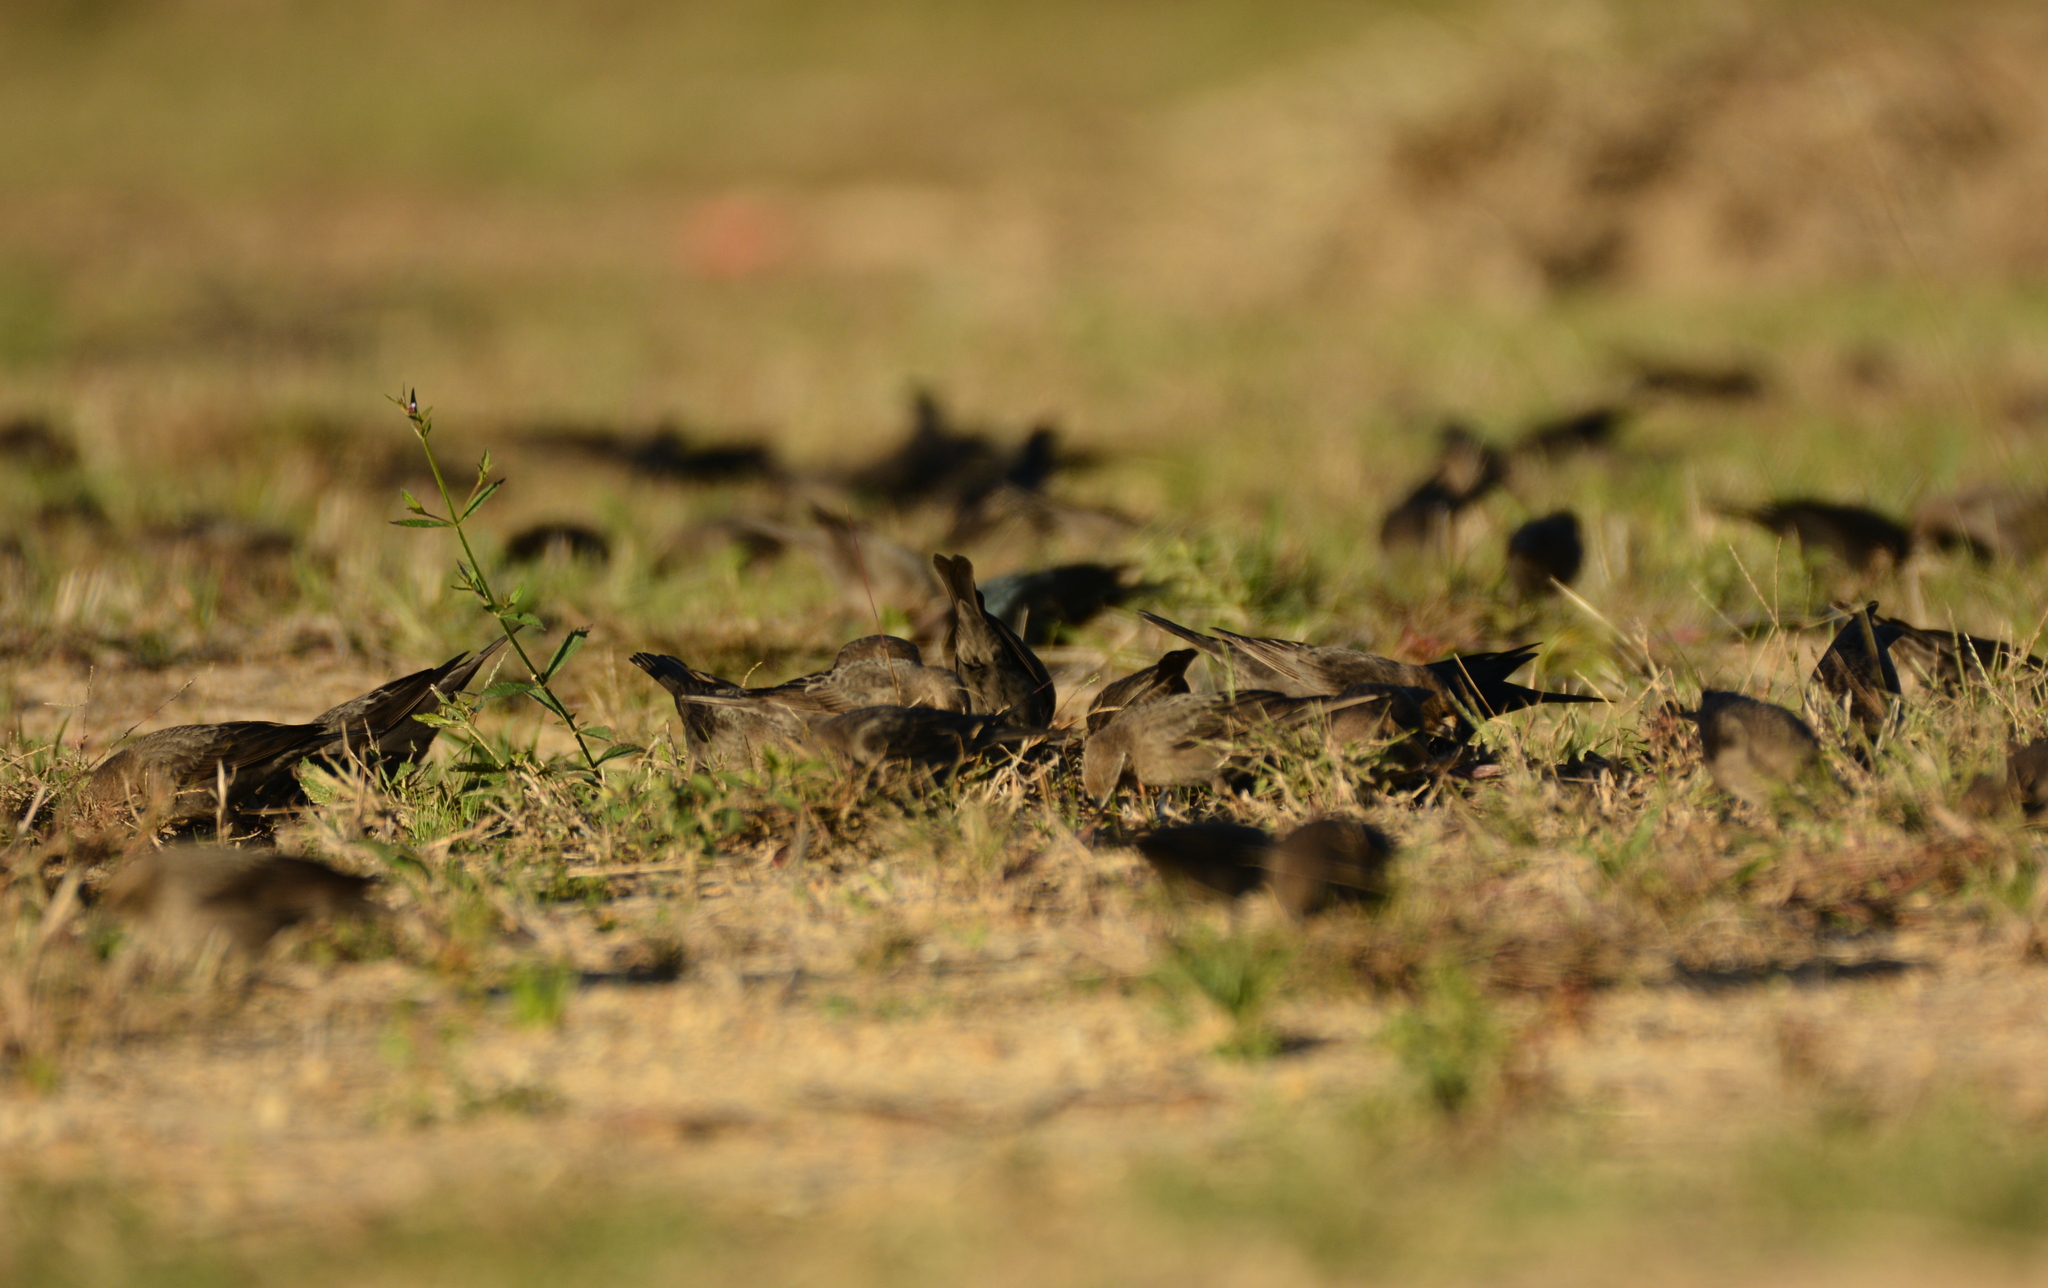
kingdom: Animalia
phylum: Chordata
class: Aves
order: Passeriformes
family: Icteridae
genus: Molothrus
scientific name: Molothrus ater
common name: Brown-headed cowbird
